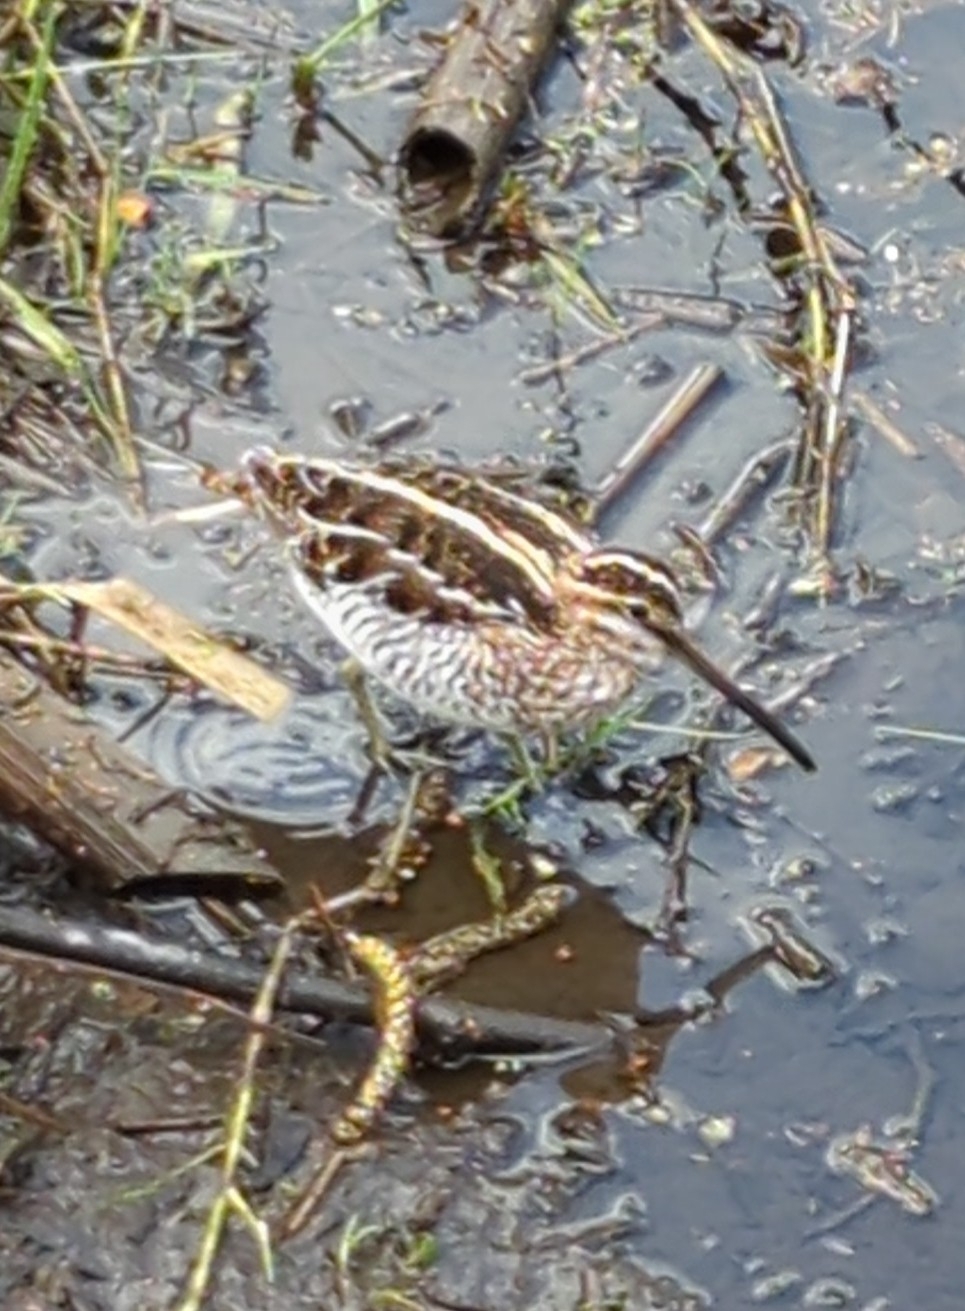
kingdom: Animalia
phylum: Chordata
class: Aves
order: Charadriiformes
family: Scolopacidae
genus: Gallinago
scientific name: Gallinago delicata
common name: Wilson's snipe
